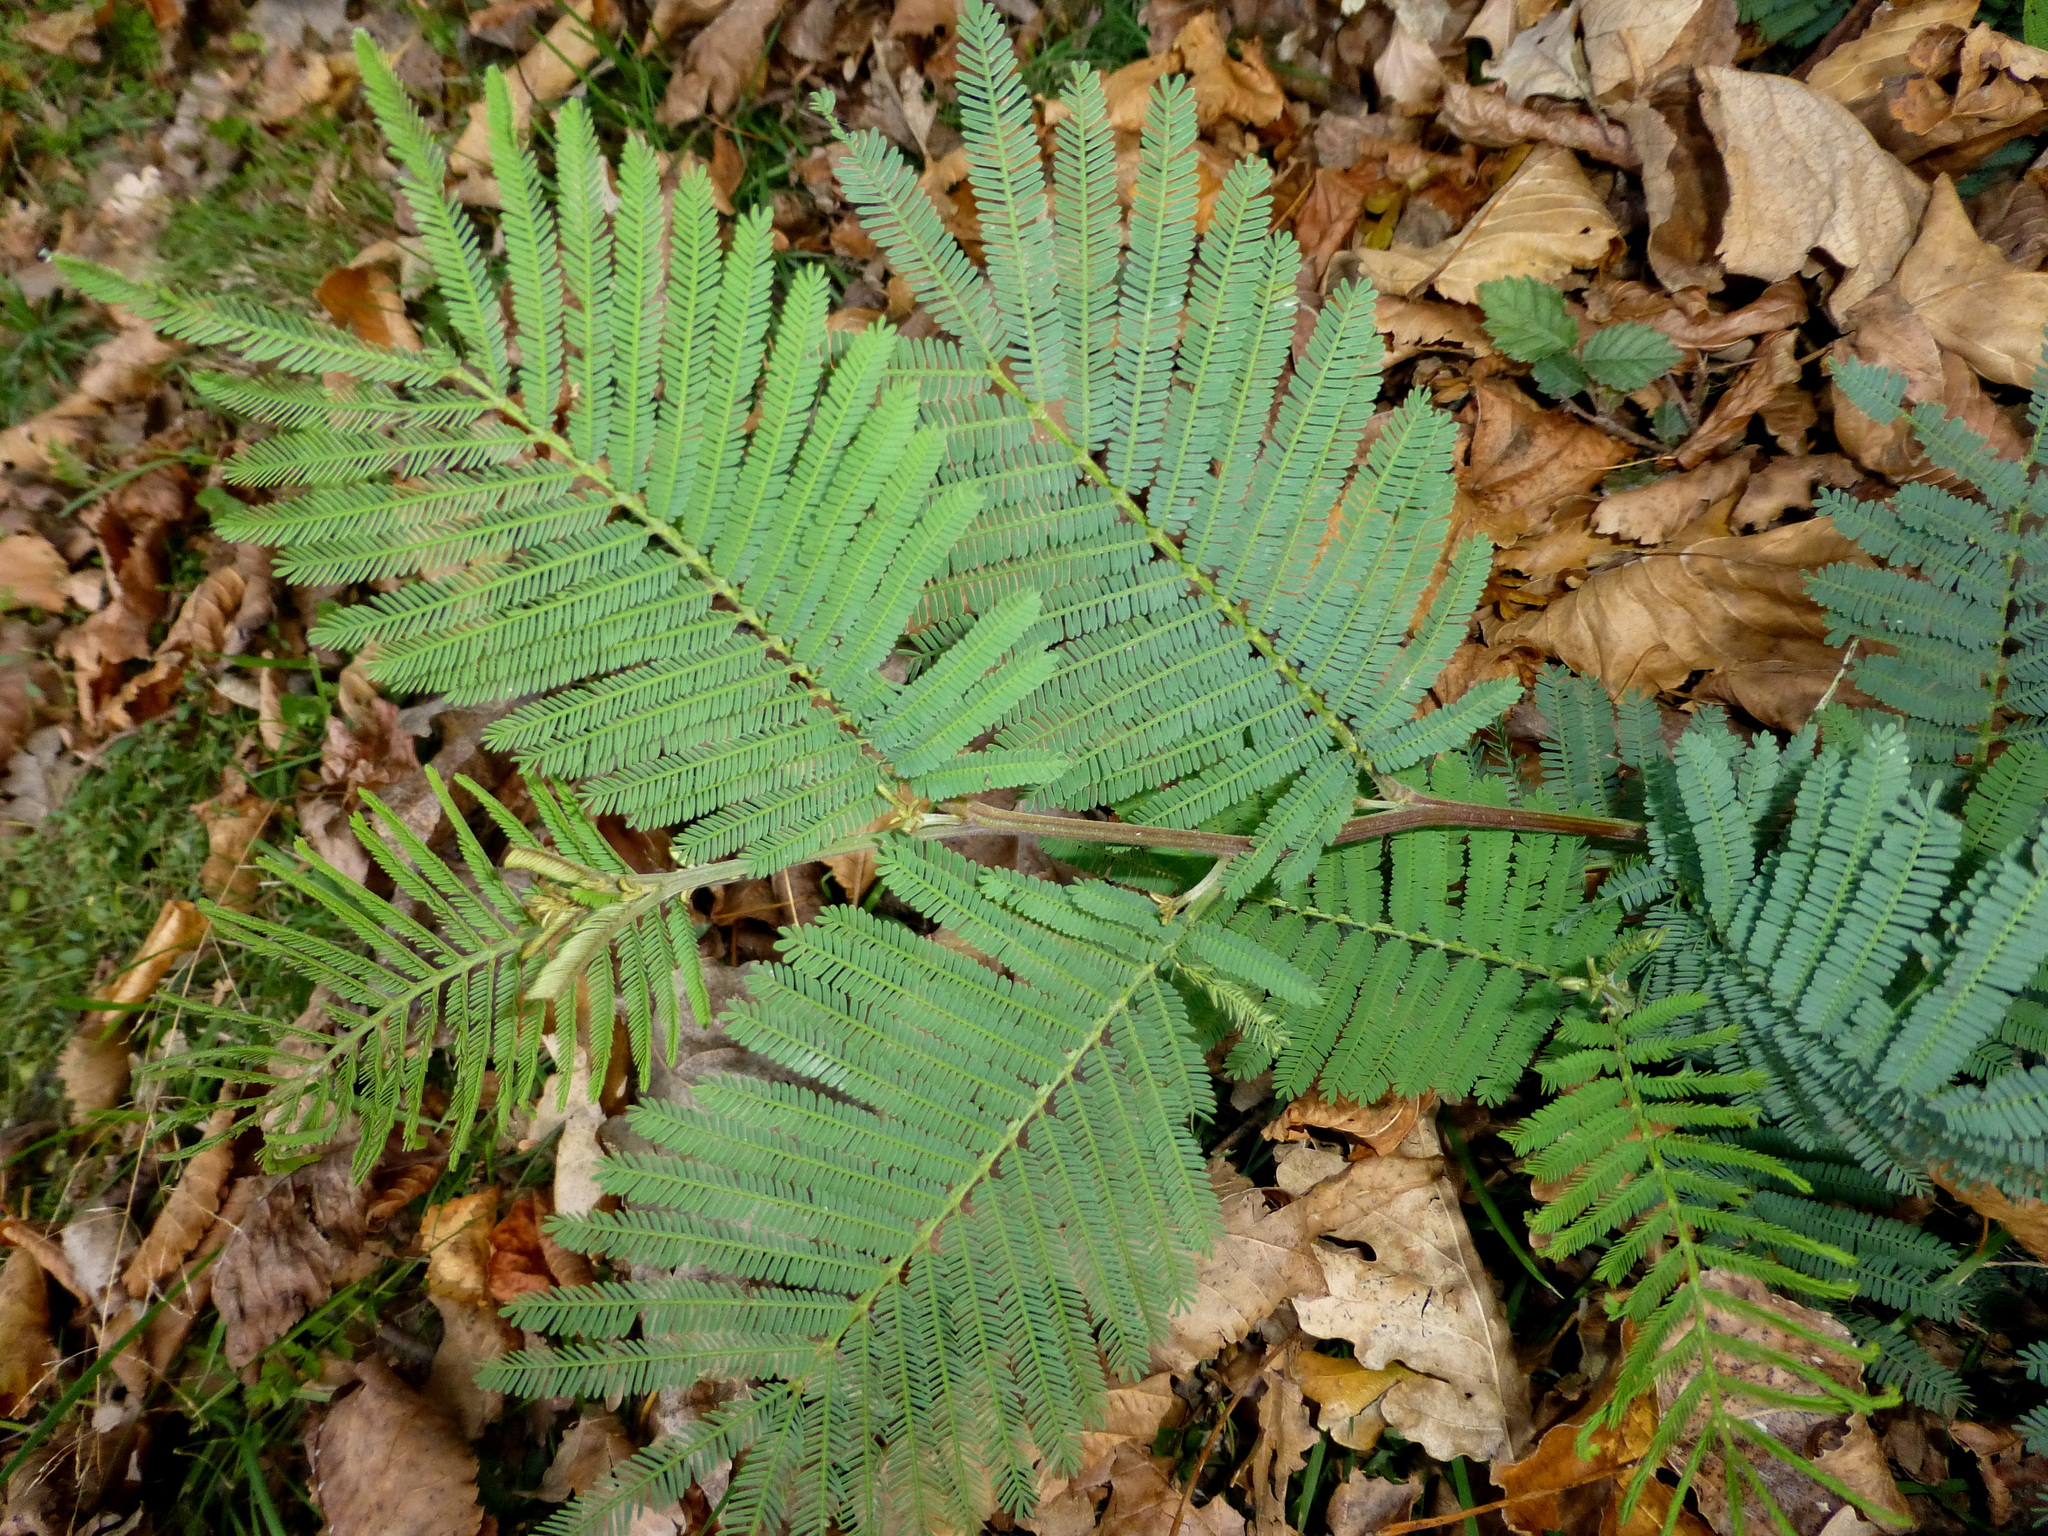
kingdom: Plantae
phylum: Tracheophyta
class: Magnoliopsida
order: Fabales
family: Fabaceae
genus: Acacia
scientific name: Acacia dealbata
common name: Silver wattle
